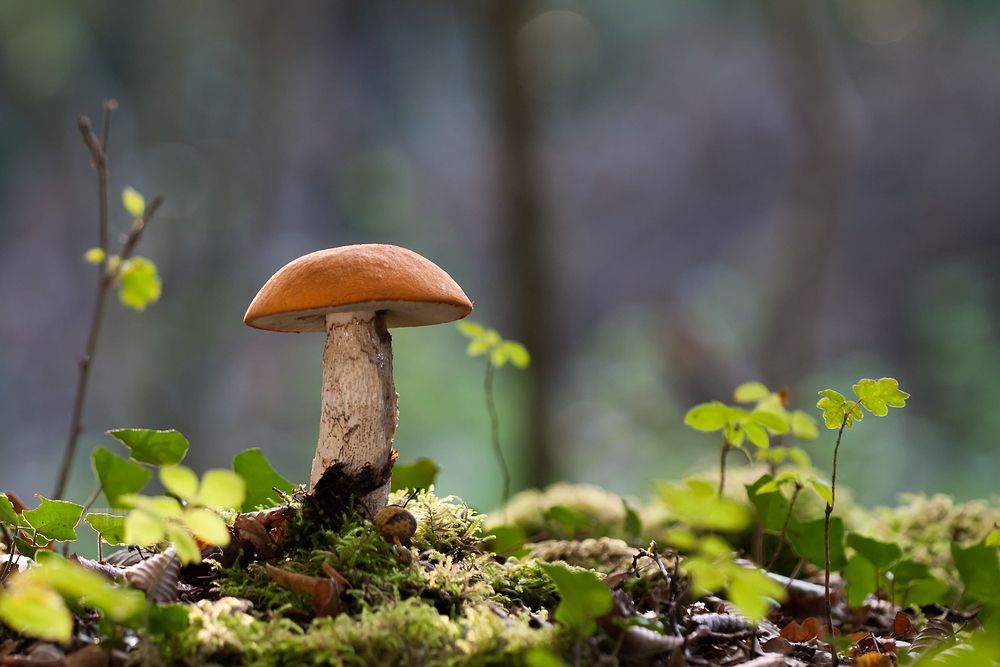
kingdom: Fungi
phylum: Basidiomycota
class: Agaricomycetes
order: Boletales
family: Boletaceae
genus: Leccinum
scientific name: Leccinum aurantiacum
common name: Orange bolete
